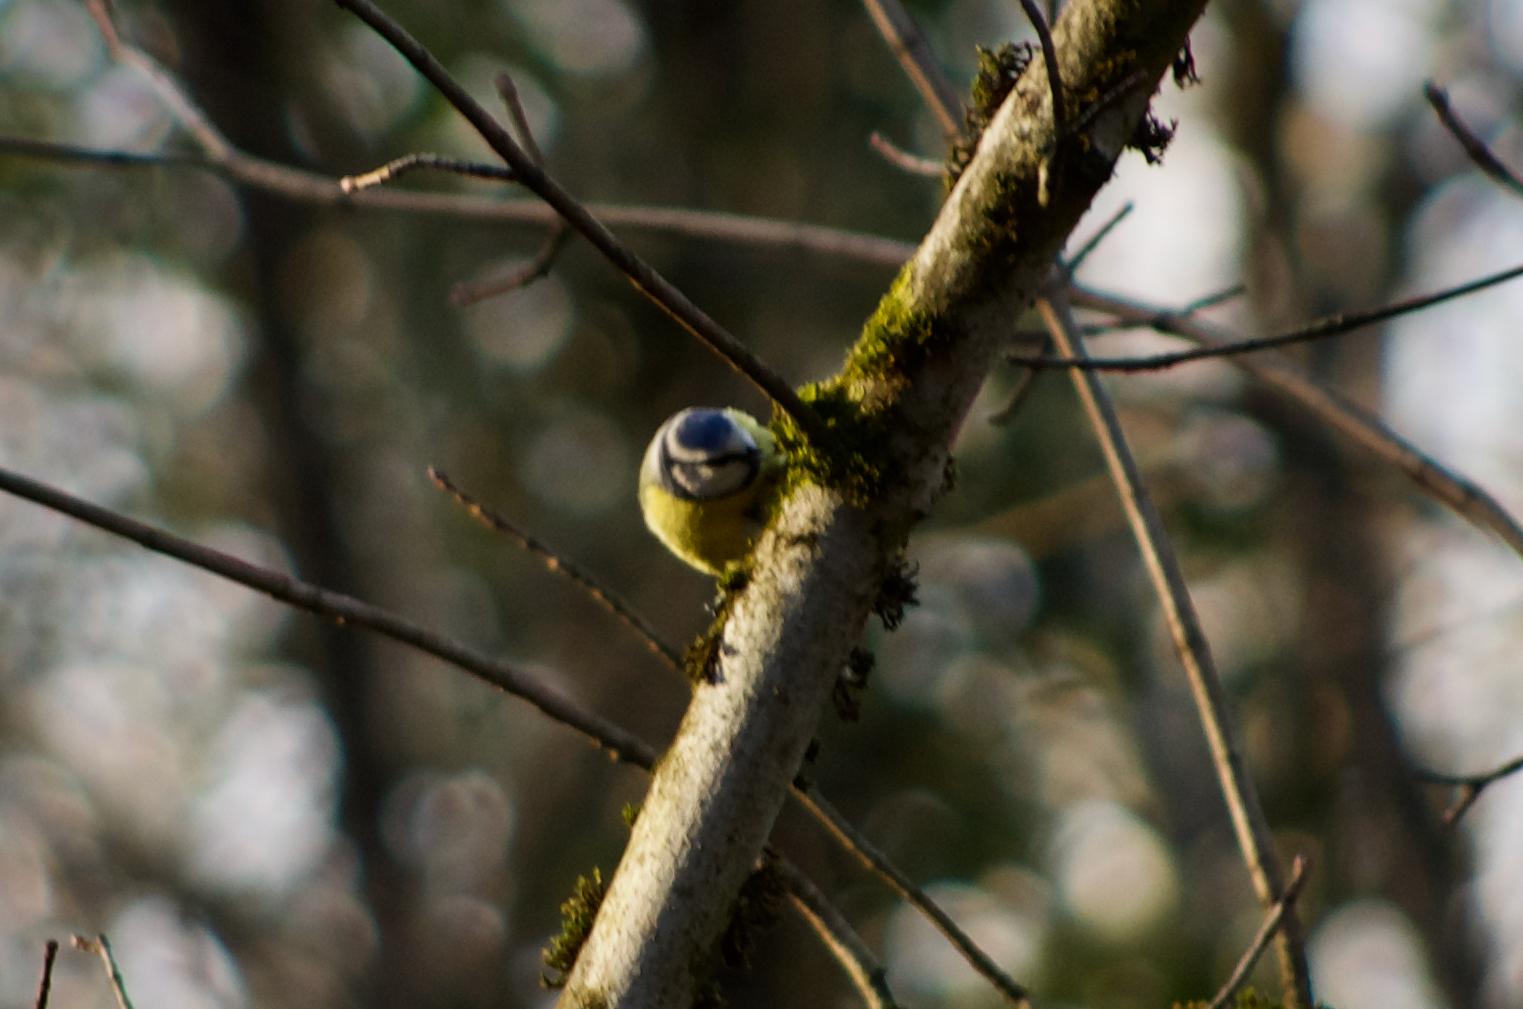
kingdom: Animalia
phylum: Chordata
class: Aves
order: Passeriformes
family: Paridae
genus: Cyanistes
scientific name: Cyanistes caeruleus
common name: Eurasian blue tit
